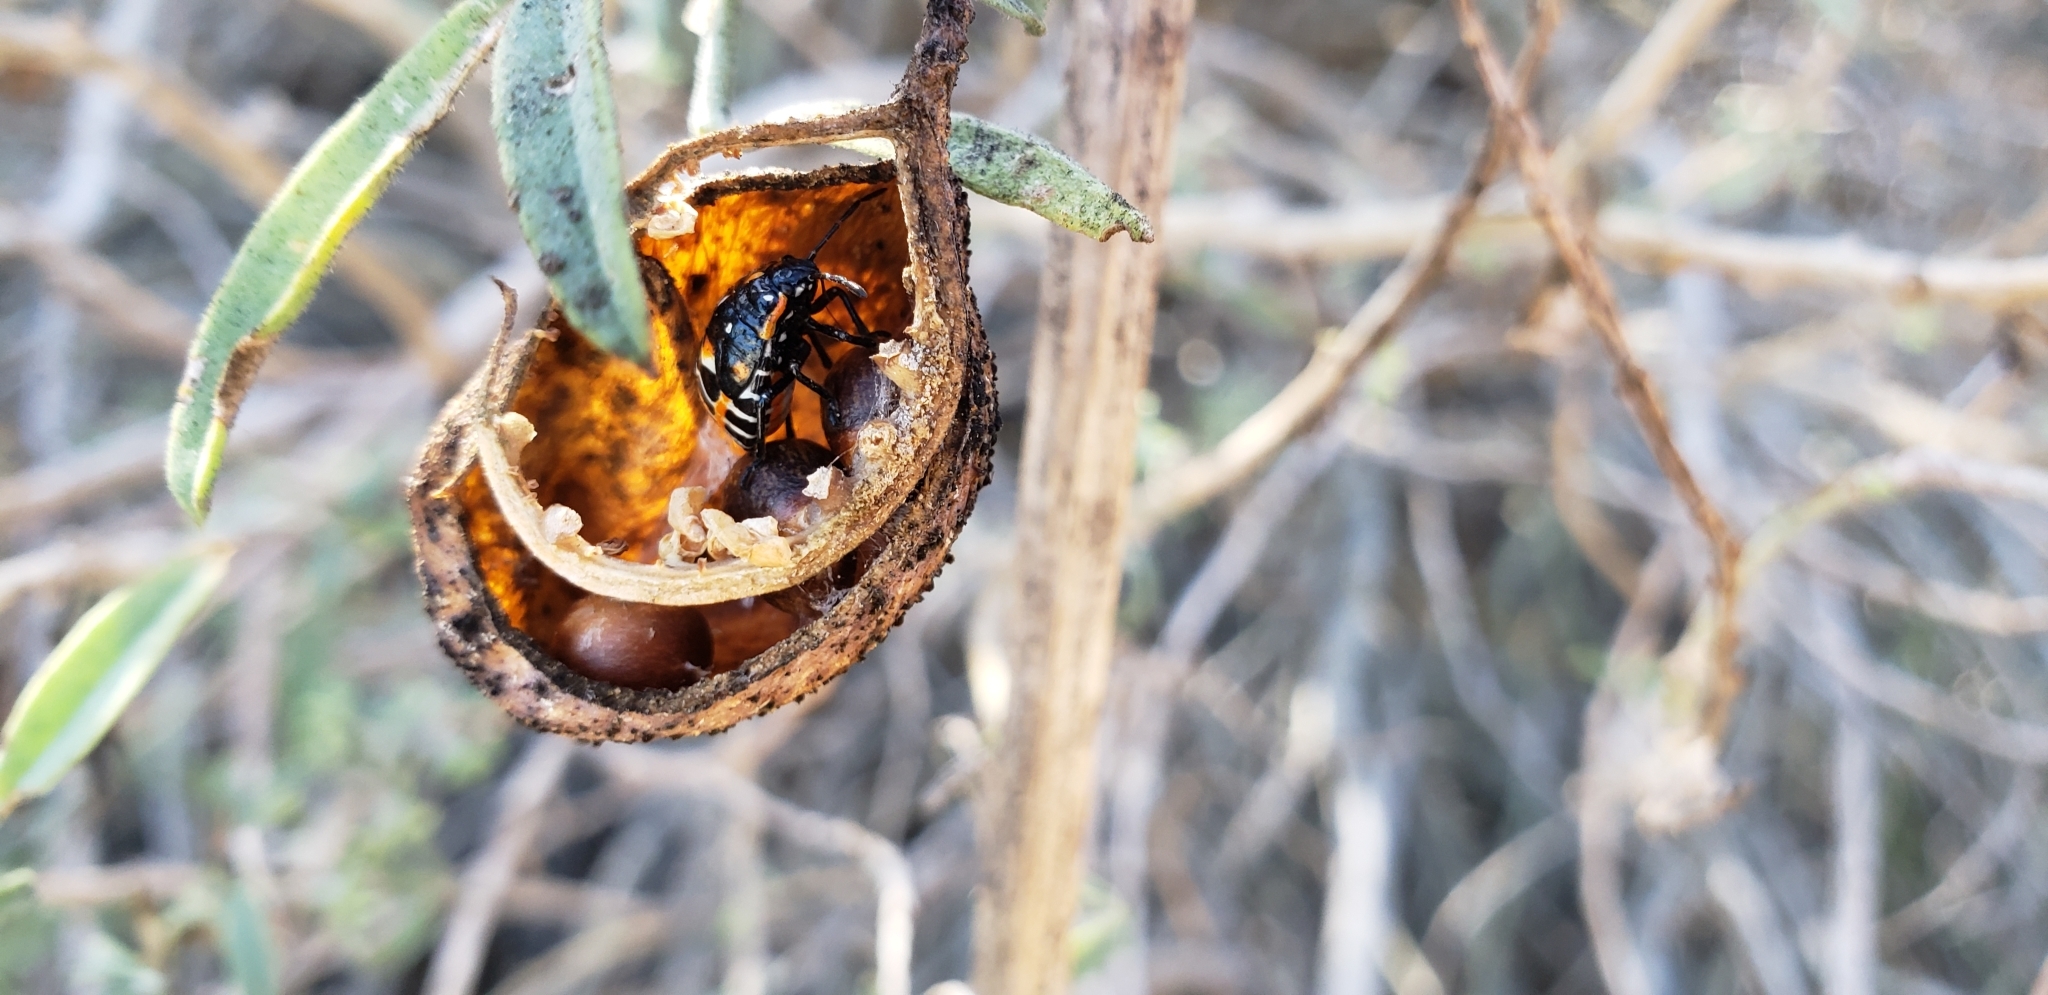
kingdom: Animalia
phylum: Arthropoda
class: Insecta
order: Hemiptera
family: Pentatomidae
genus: Murgantia
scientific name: Murgantia histrionica
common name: Harlequin bug
